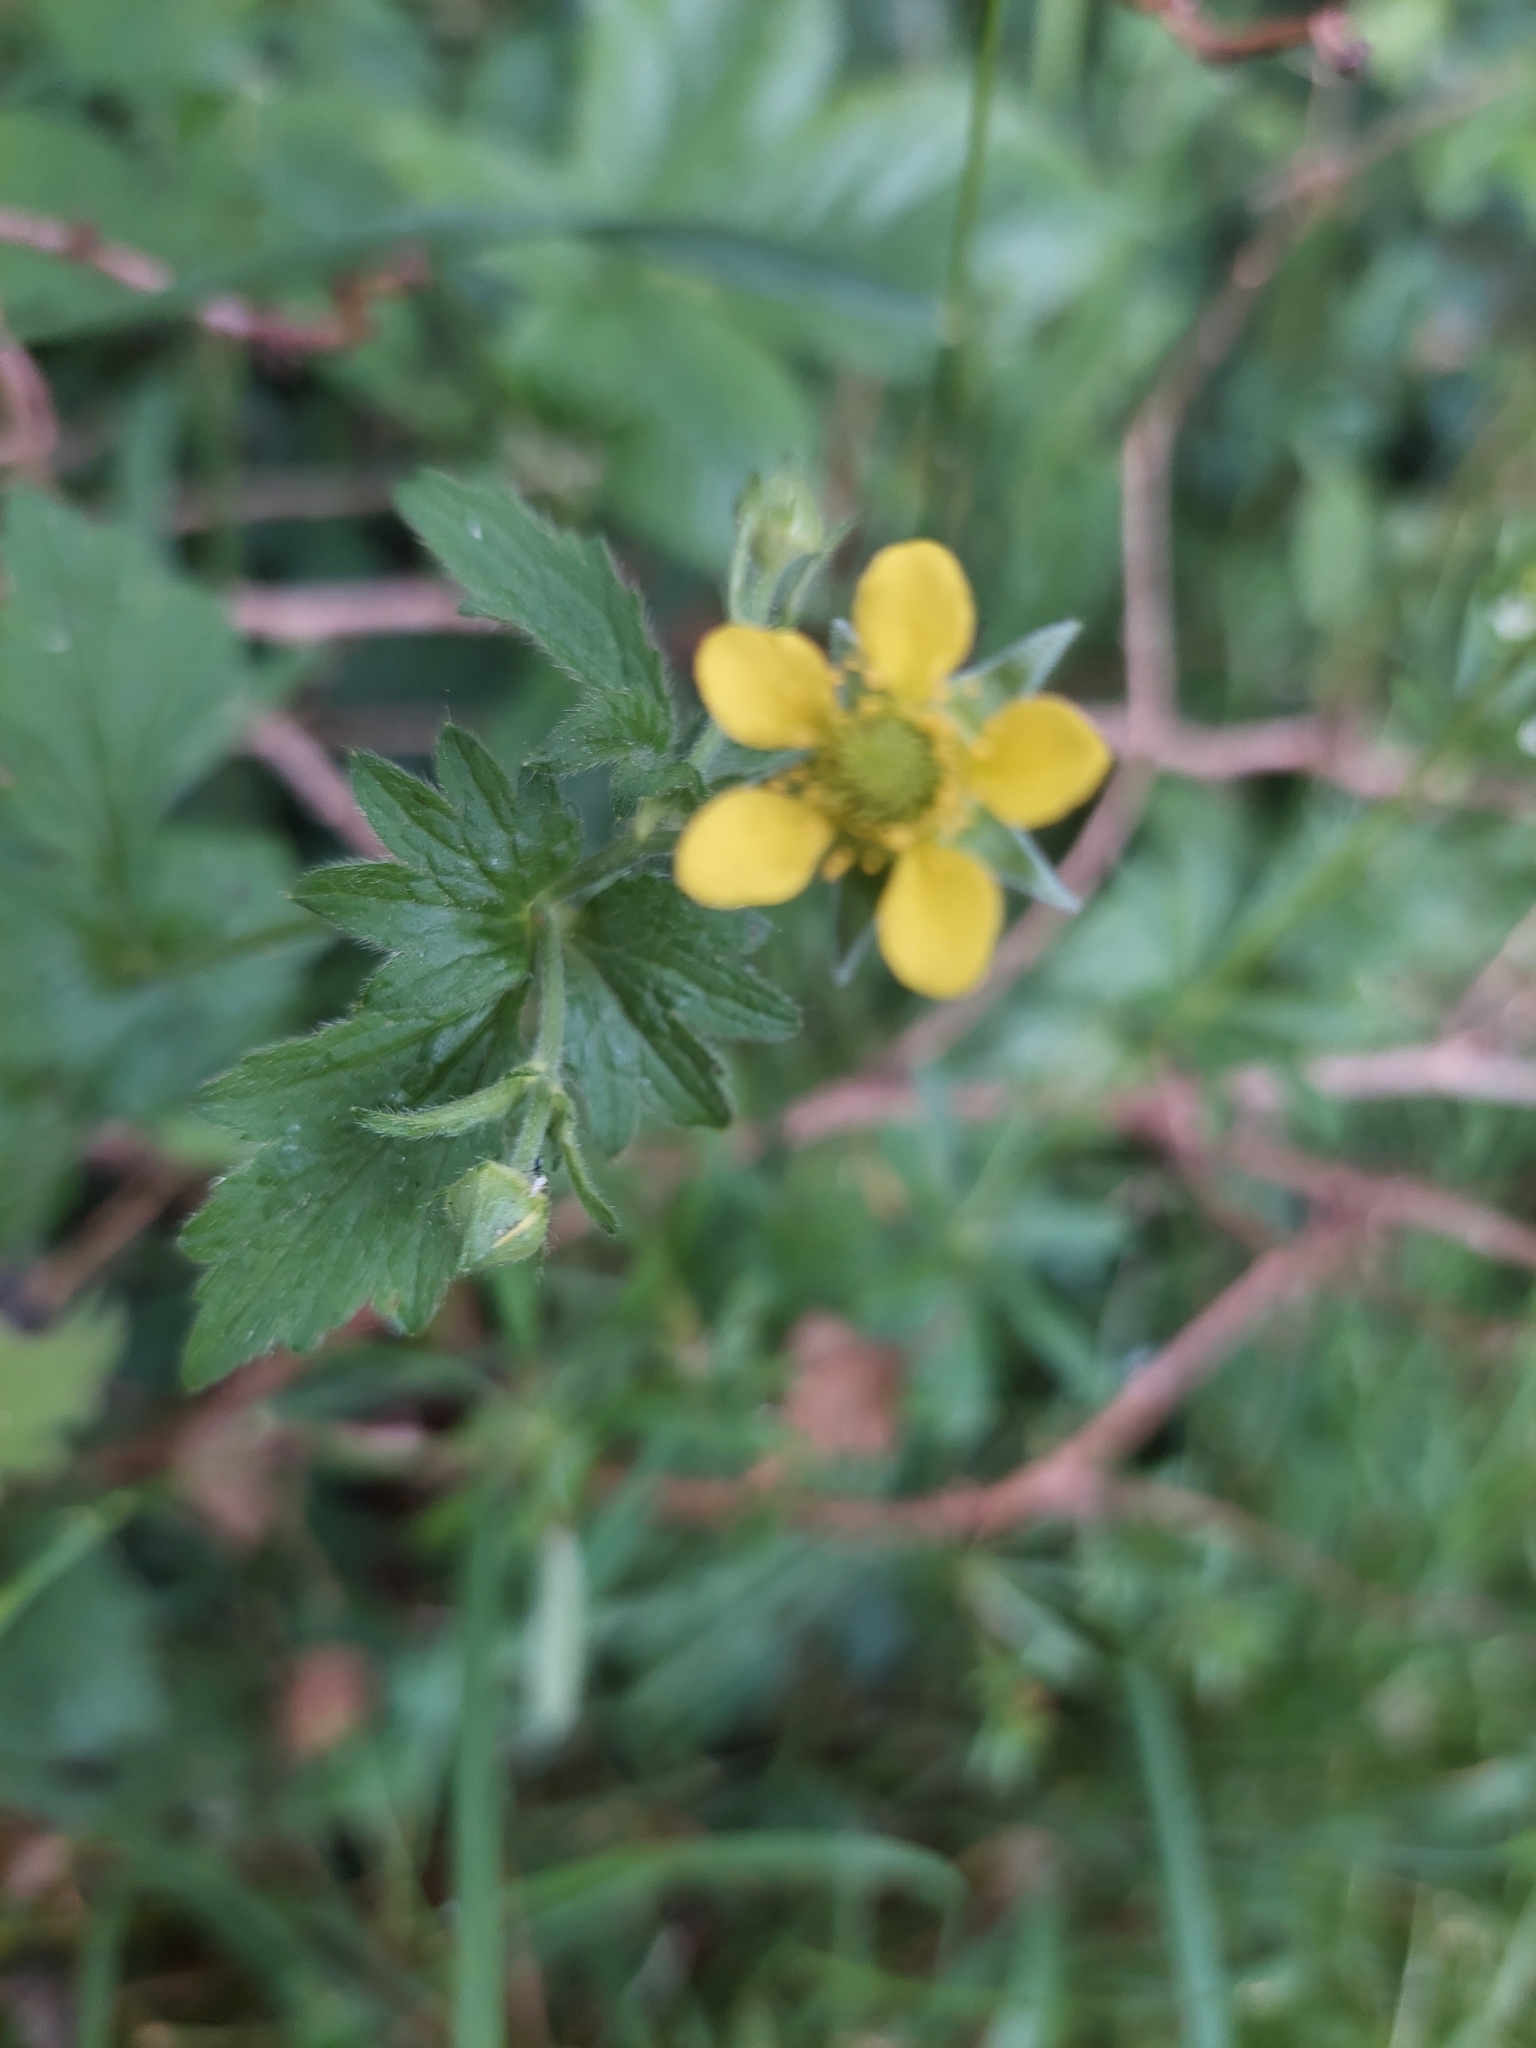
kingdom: Plantae
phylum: Tracheophyta
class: Magnoliopsida
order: Rosales
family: Rosaceae
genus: Geum
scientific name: Geum urbanum
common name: Wood avens
